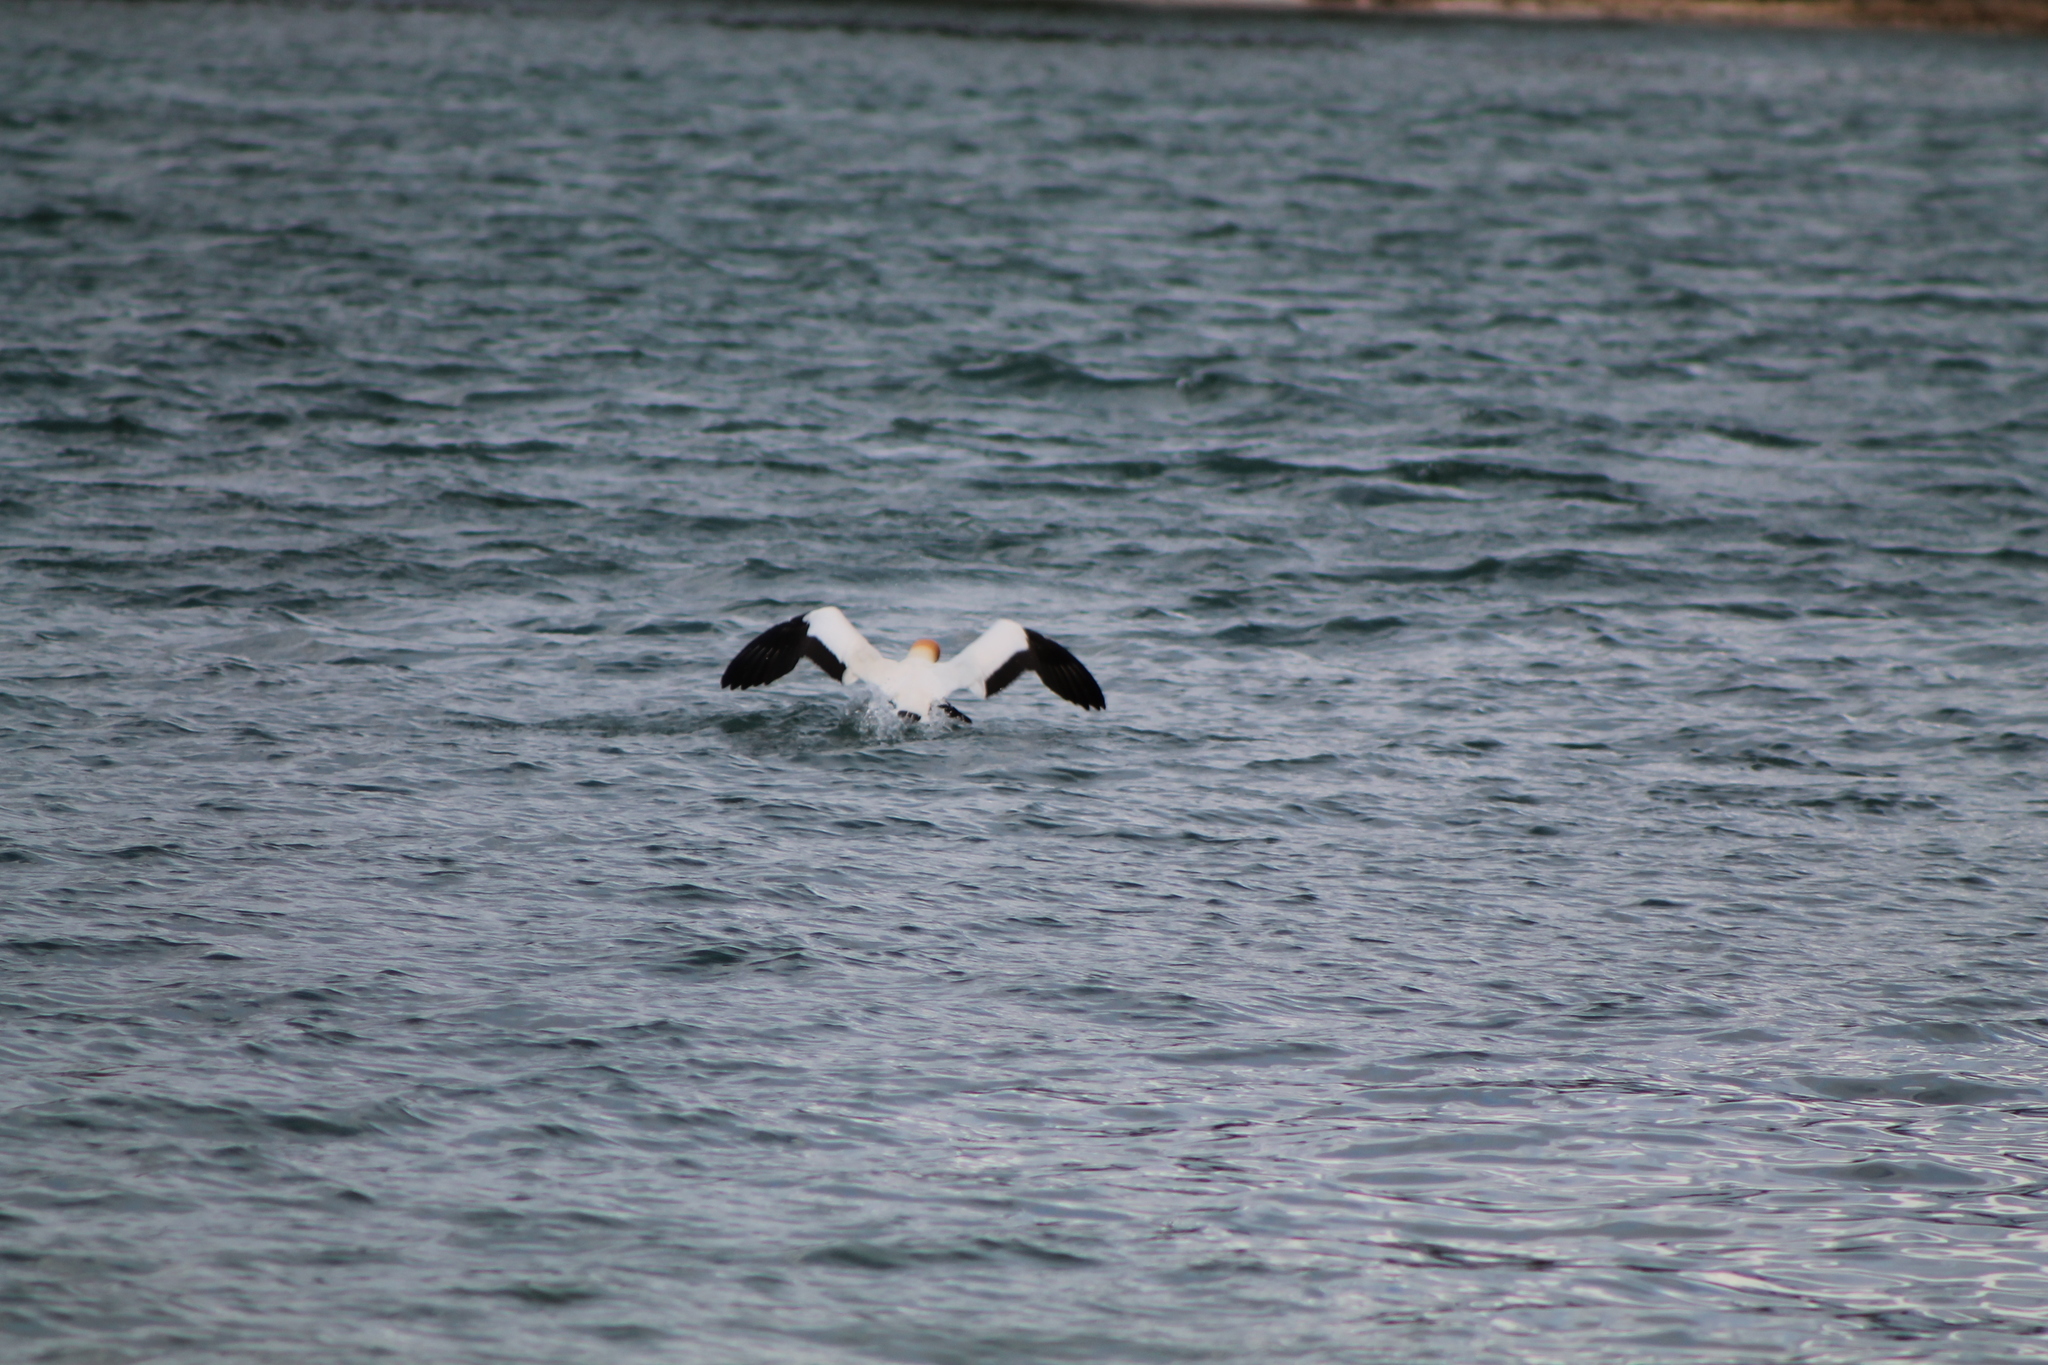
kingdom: Animalia
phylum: Chordata
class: Aves
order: Suliformes
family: Sulidae
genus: Morus
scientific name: Morus serrator
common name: Australasian gannet
